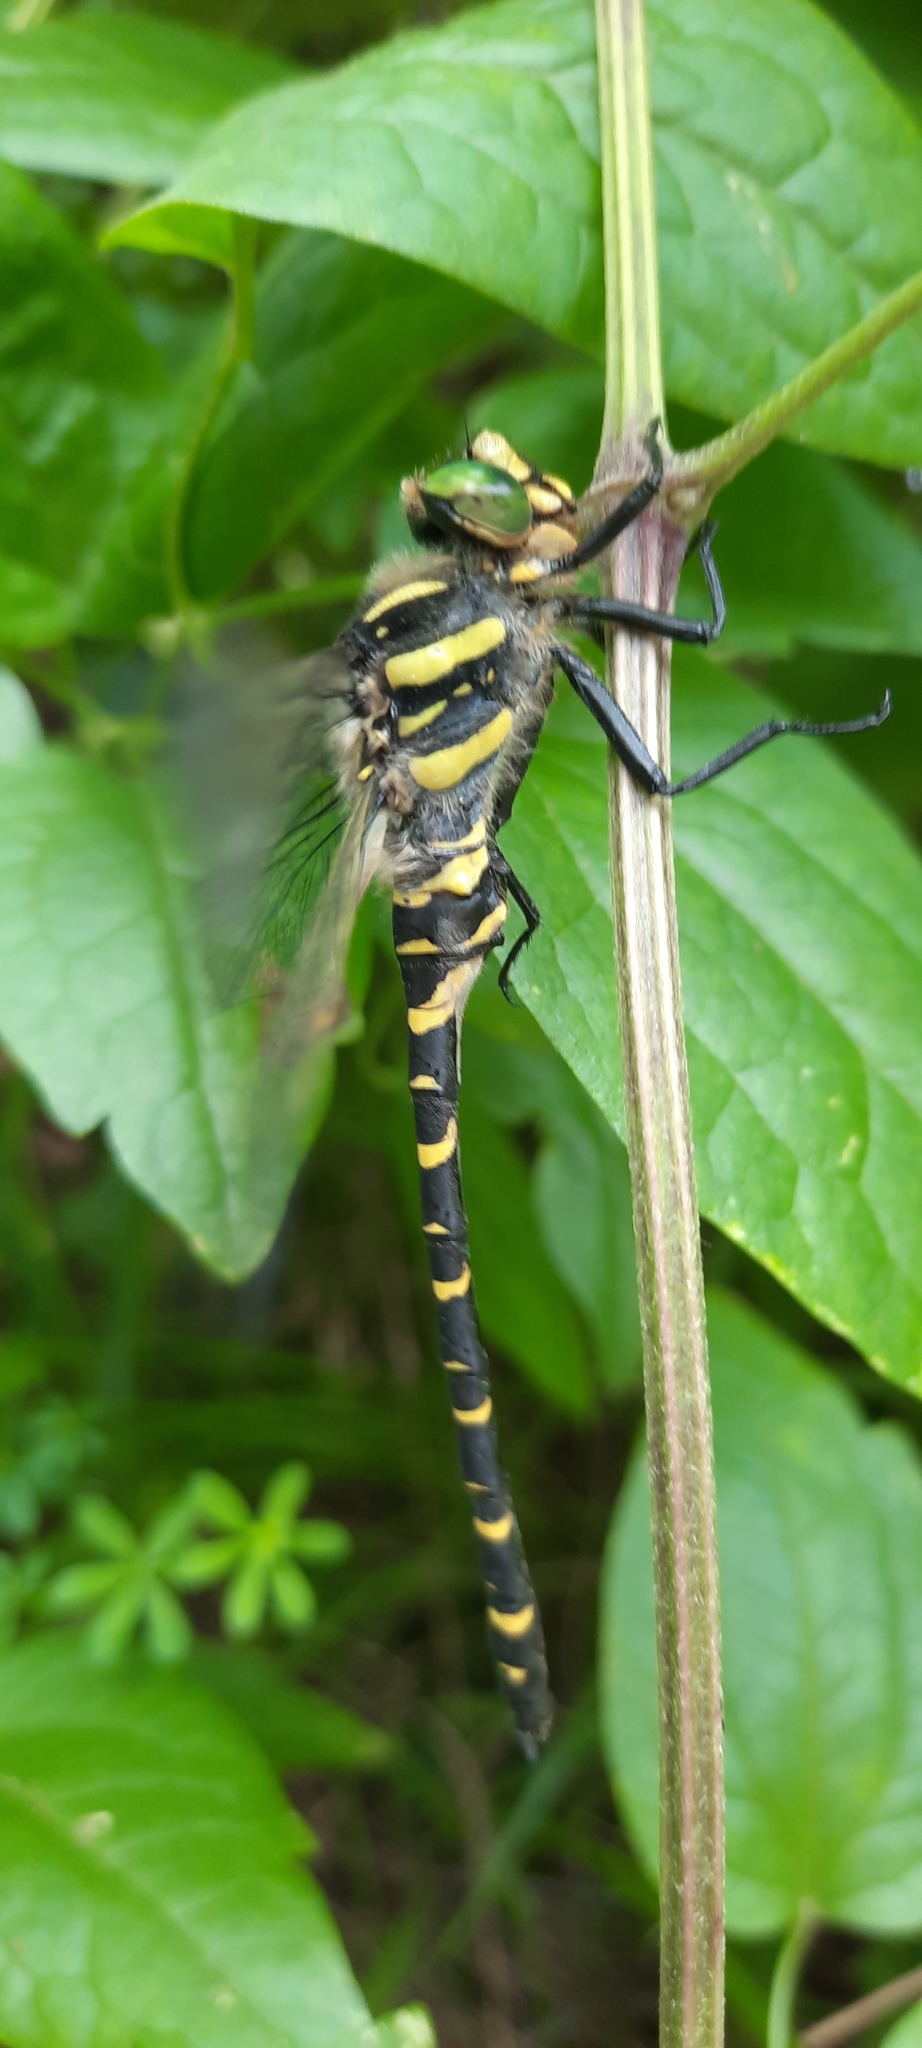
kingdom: Animalia
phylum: Arthropoda
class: Insecta
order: Odonata
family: Cordulegastridae
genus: Cordulegaster
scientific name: Cordulegaster boltonii
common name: Golden-ringed dragonfly
